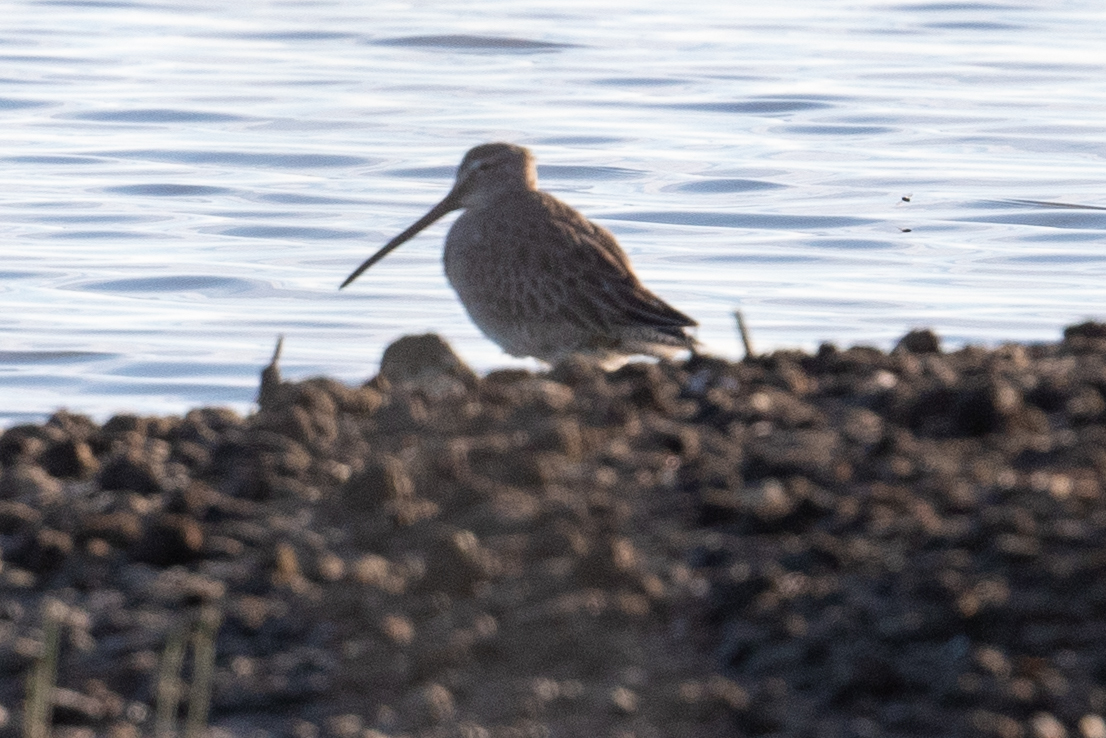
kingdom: Animalia
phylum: Chordata
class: Aves
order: Charadriiformes
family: Scolopacidae
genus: Limnodromus
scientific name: Limnodromus scolopaceus
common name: Long-billed dowitcher
